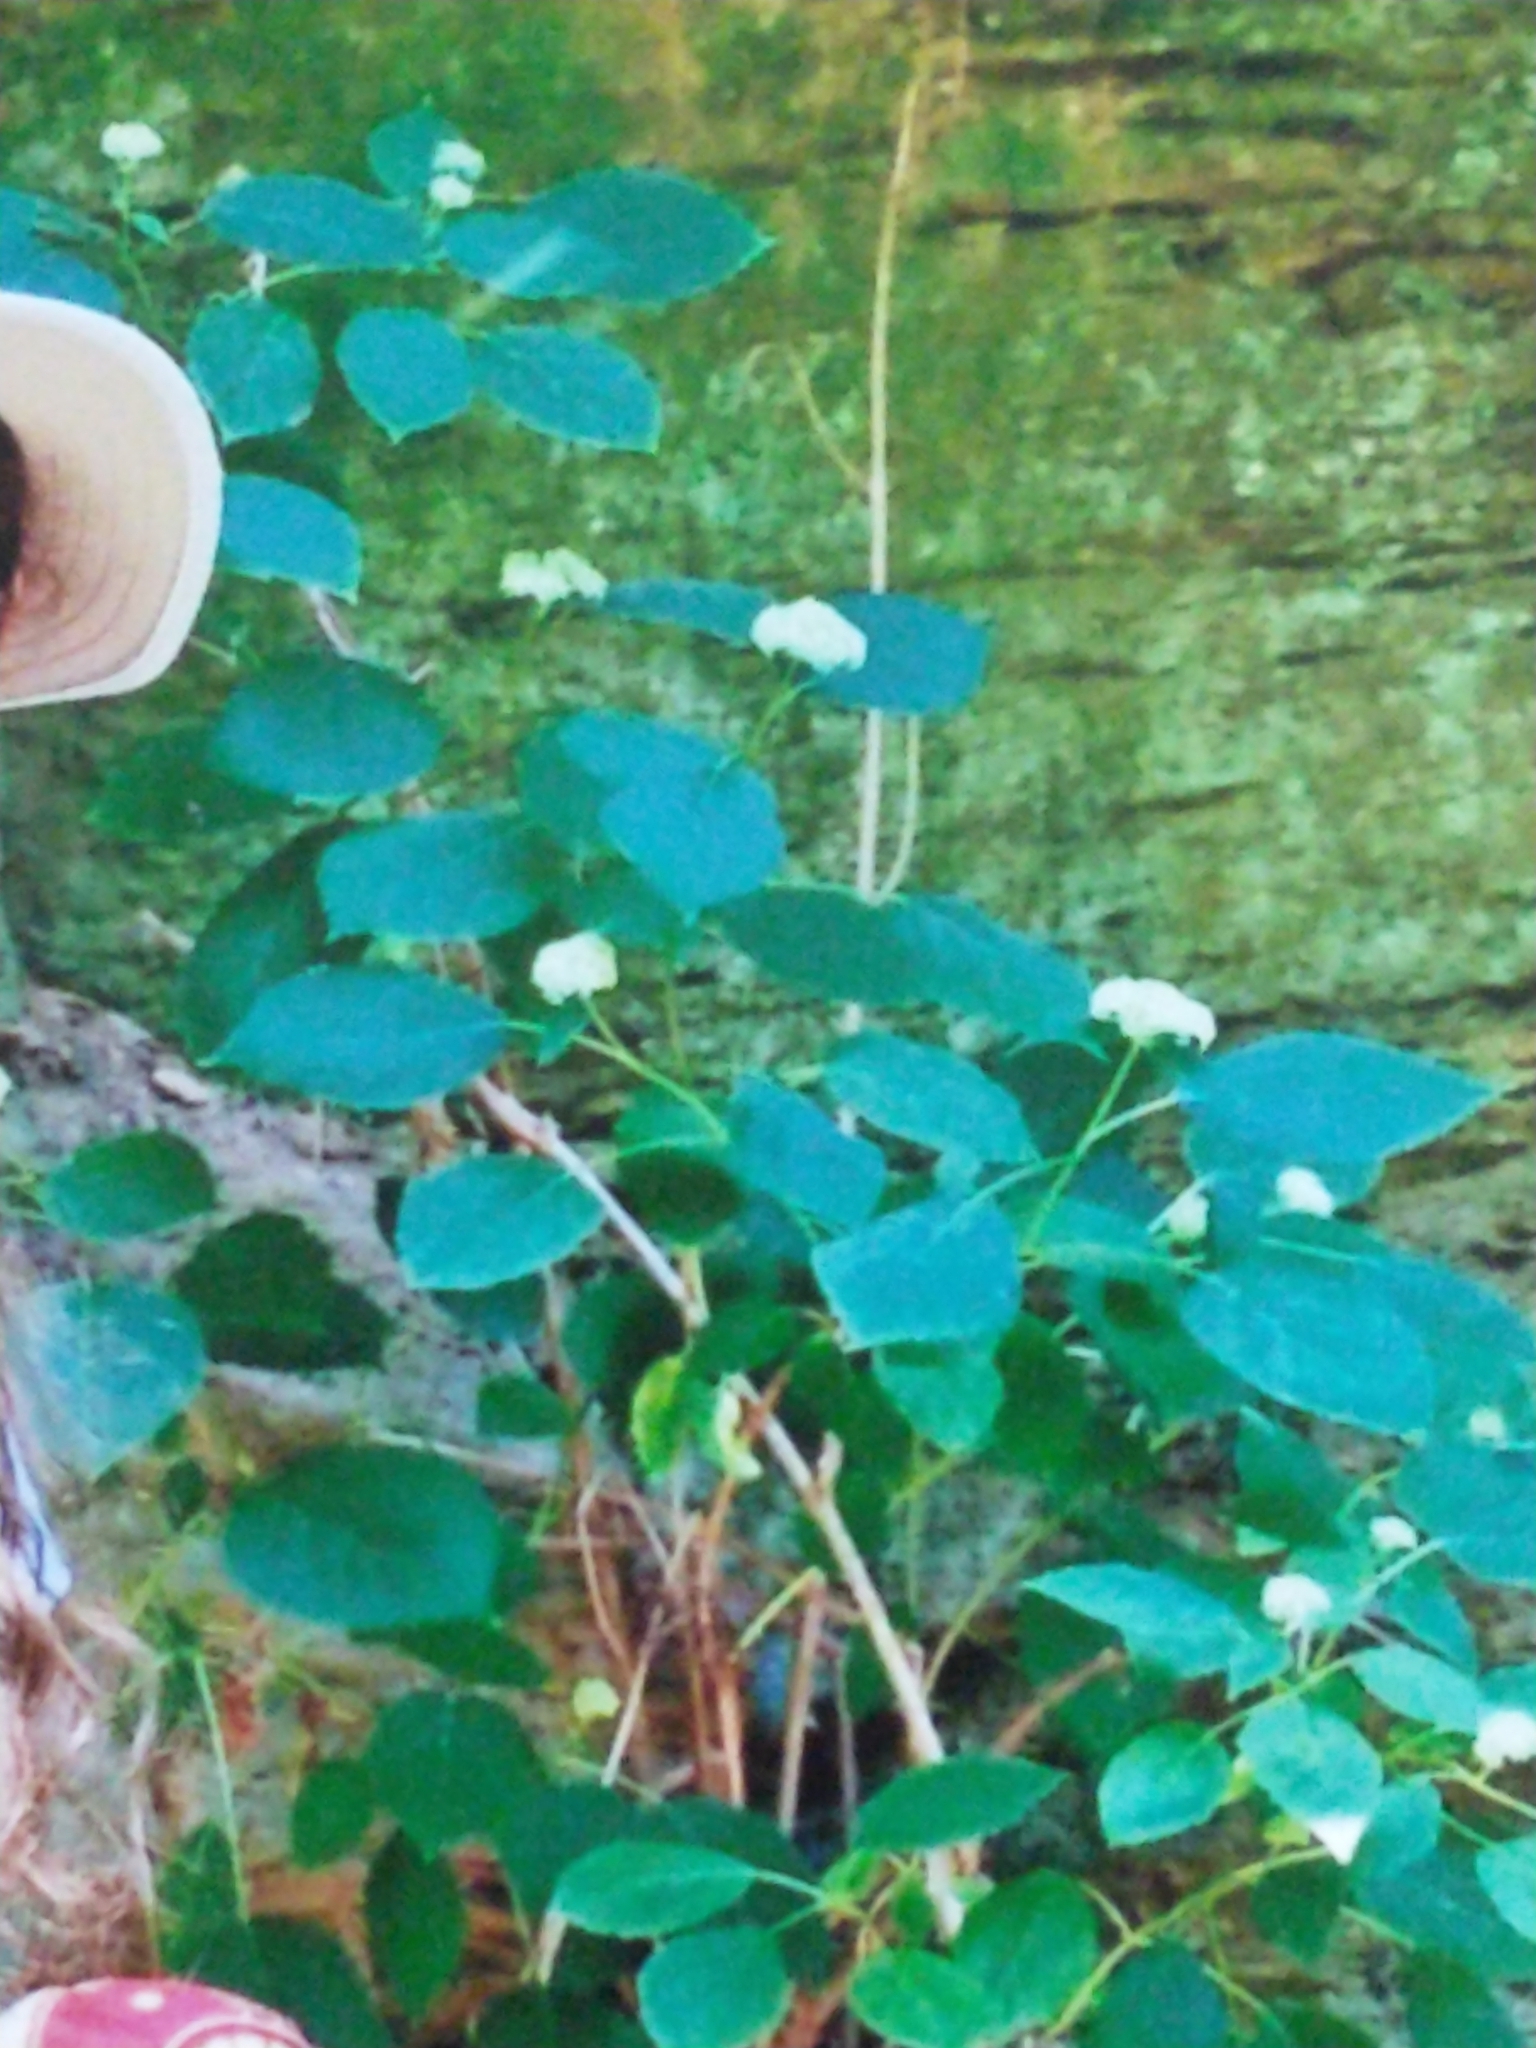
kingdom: Plantae
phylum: Tracheophyta
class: Magnoliopsida
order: Cornales
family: Hydrangeaceae
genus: Hydrangea
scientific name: Hydrangea arborescens
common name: Sevenbark
